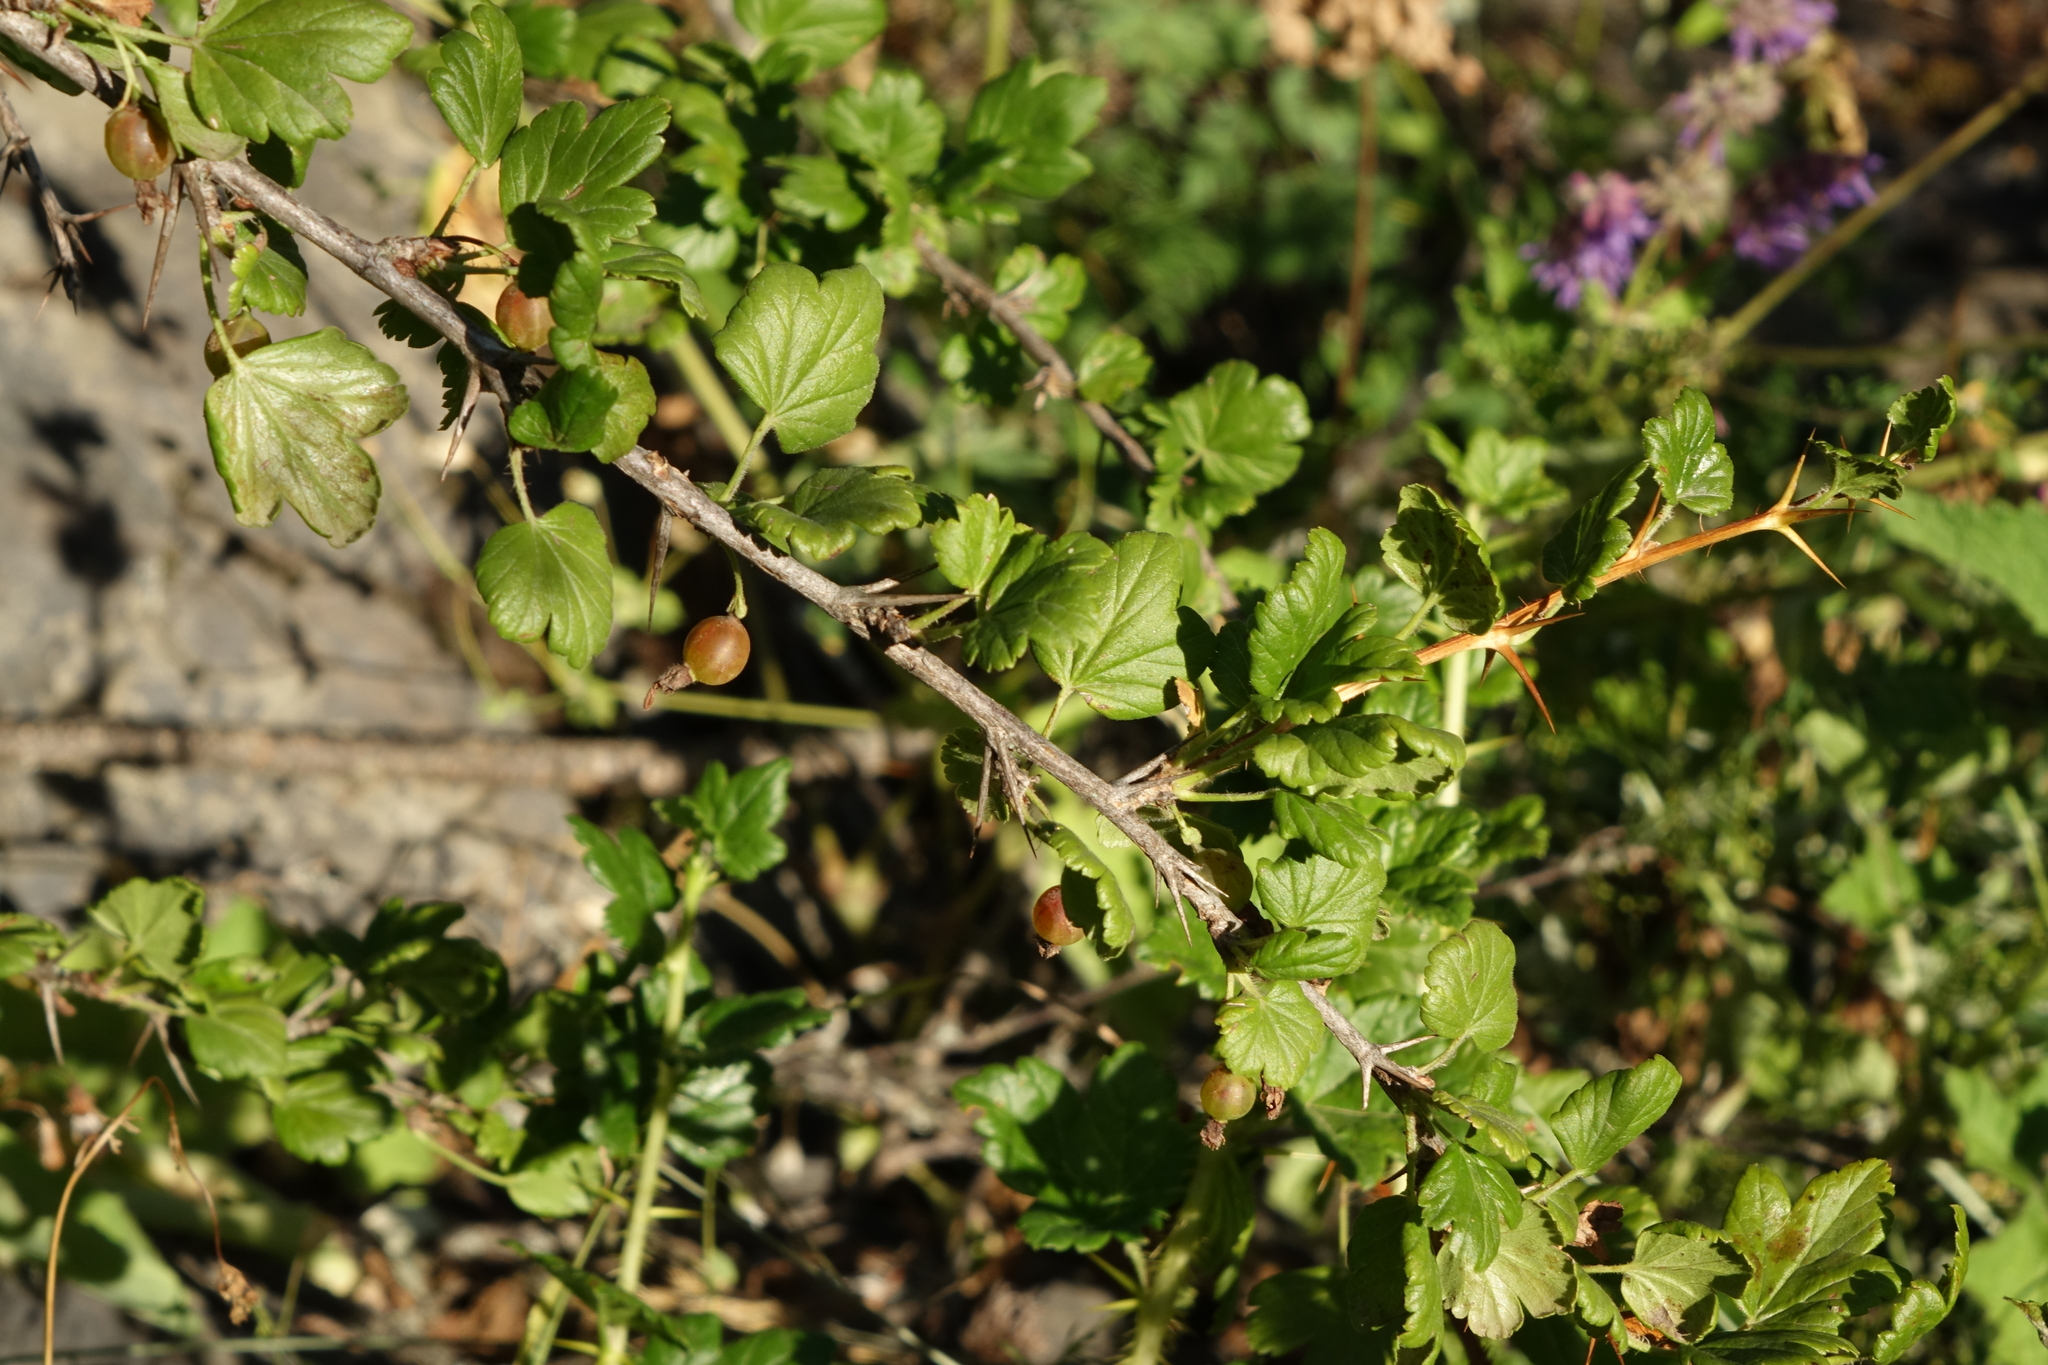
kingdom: Plantae
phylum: Tracheophyta
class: Magnoliopsida
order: Saxifragales
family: Grossulariaceae
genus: Ribes
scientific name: Ribes uva-crispa
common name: Gooseberry
